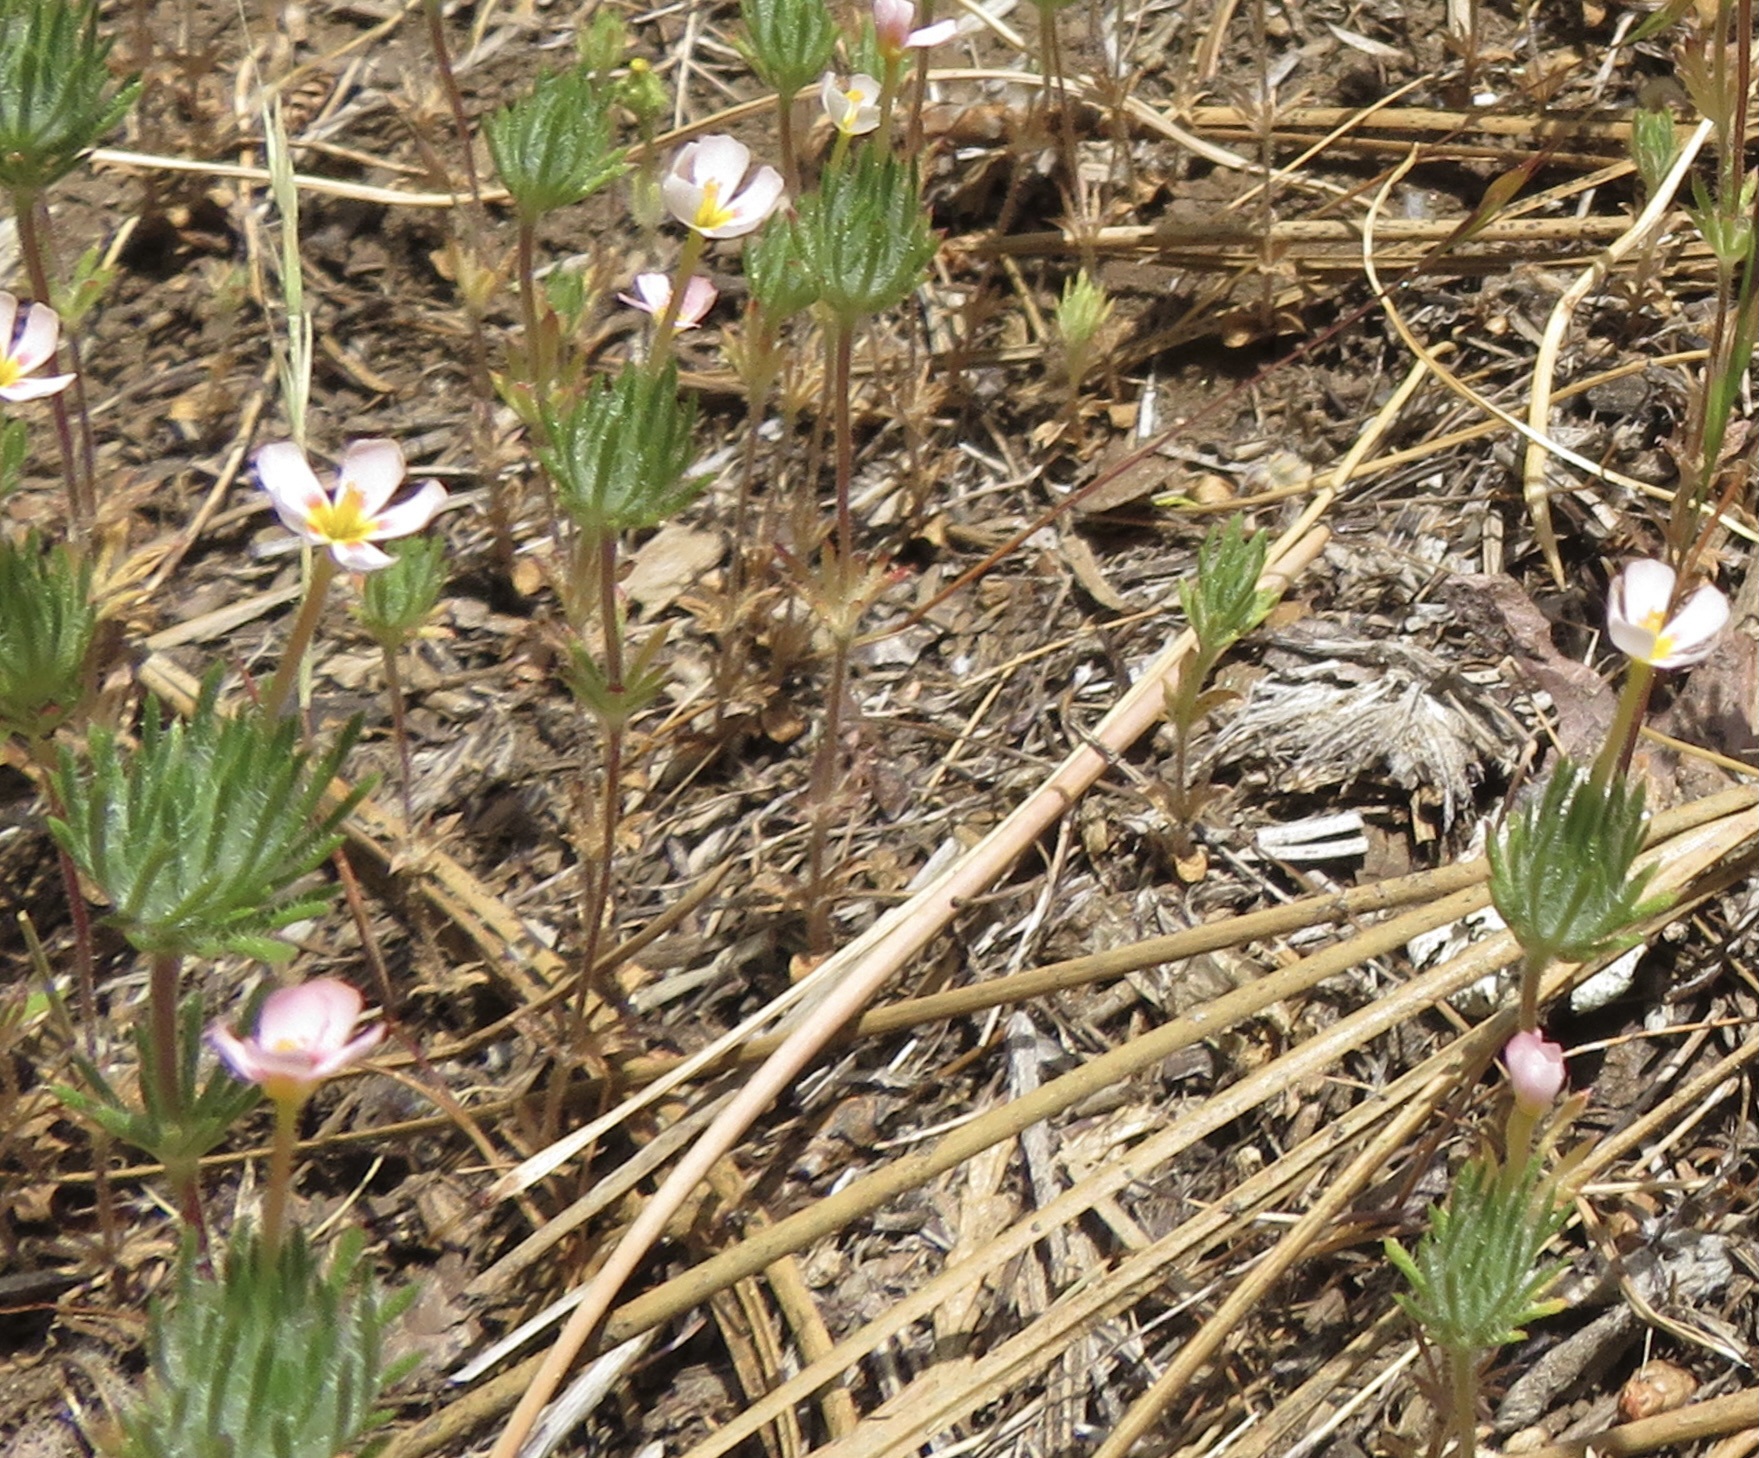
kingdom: Plantae
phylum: Tracheophyta
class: Magnoliopsida
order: Ericales
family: Polemoniaceae
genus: Leptosiphon
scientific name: Leptosiphon ciliatus
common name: Whiskerbrush
